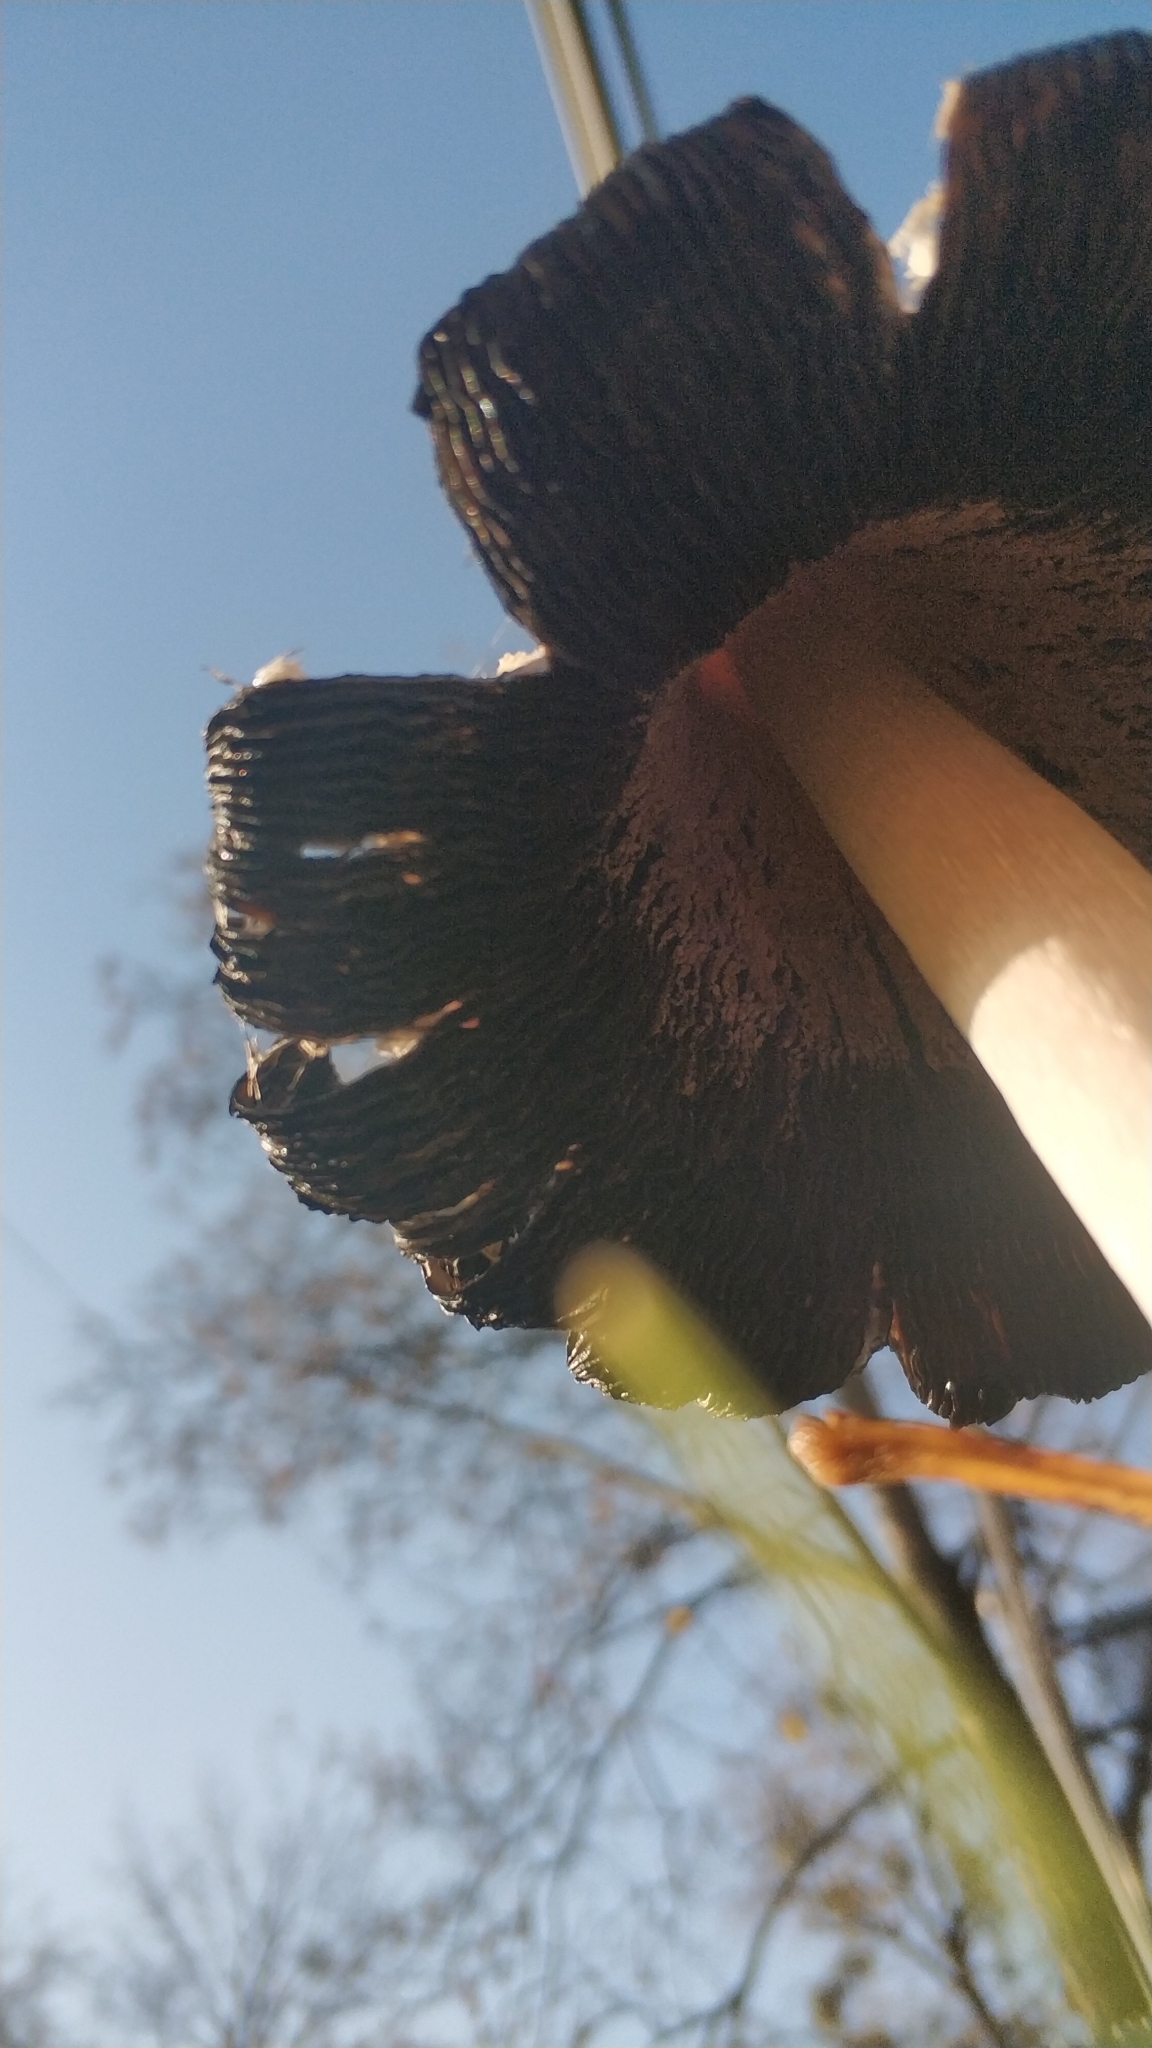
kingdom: Fungi
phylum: Basidiomycota
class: Agaricomycetes
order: Agaricales
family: Agaricaceae
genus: Coprinus
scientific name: Coprinus comatus
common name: Lawyer's wig
